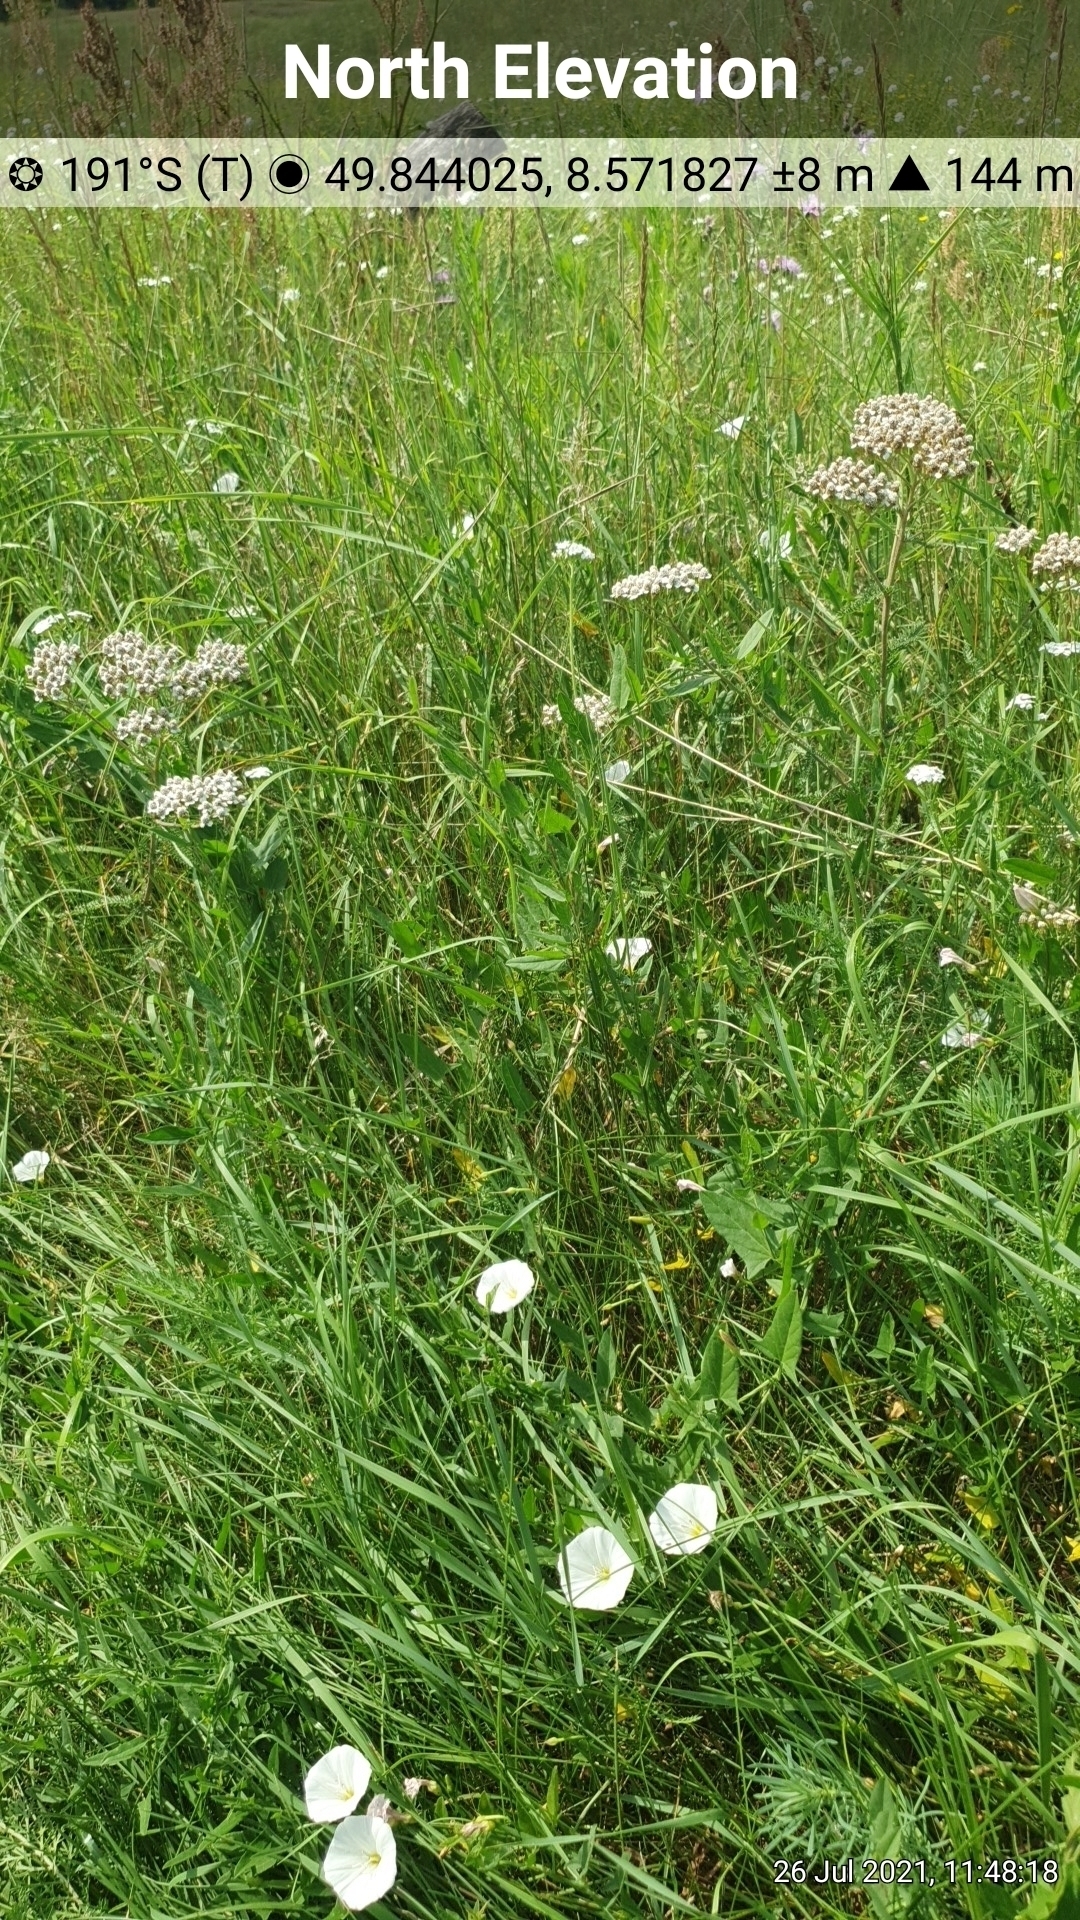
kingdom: Plantae
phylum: Tracheophyta
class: Magnoliopsida
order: Asterales
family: Asteraceae
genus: Achillea
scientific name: Achillea millefolium
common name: Yarrow
